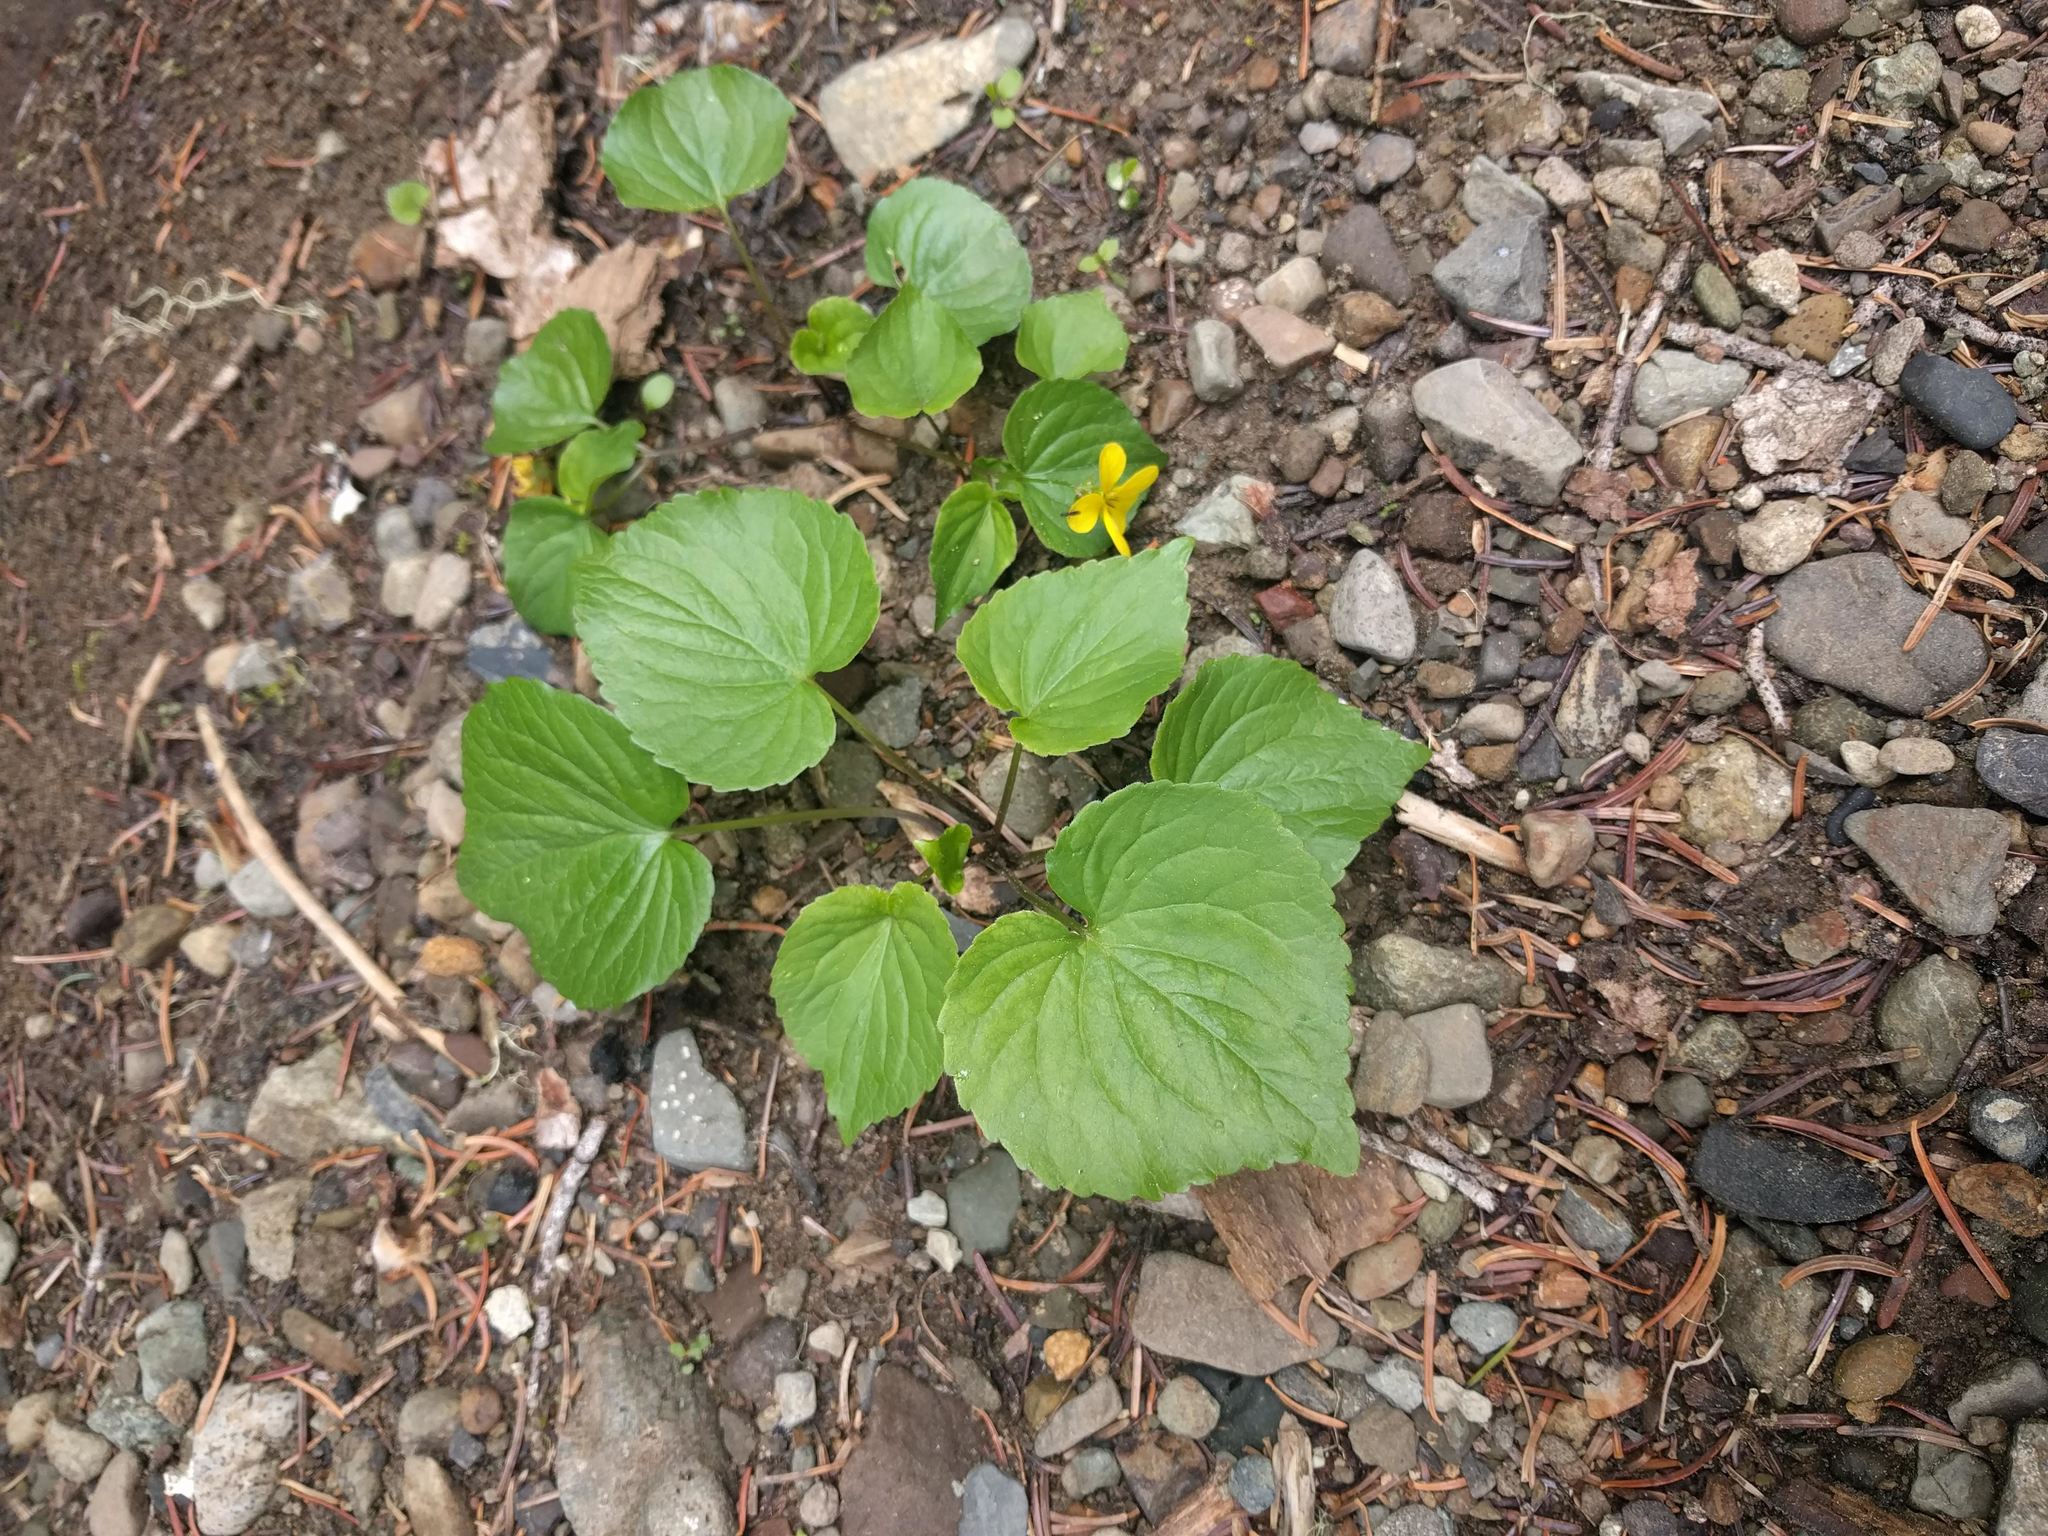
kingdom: Plantae
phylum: Tracheophyta
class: Magnoliopsida
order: Malpighiales
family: Violaceae
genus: Viola
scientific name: Viola glabella
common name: Stream violet
